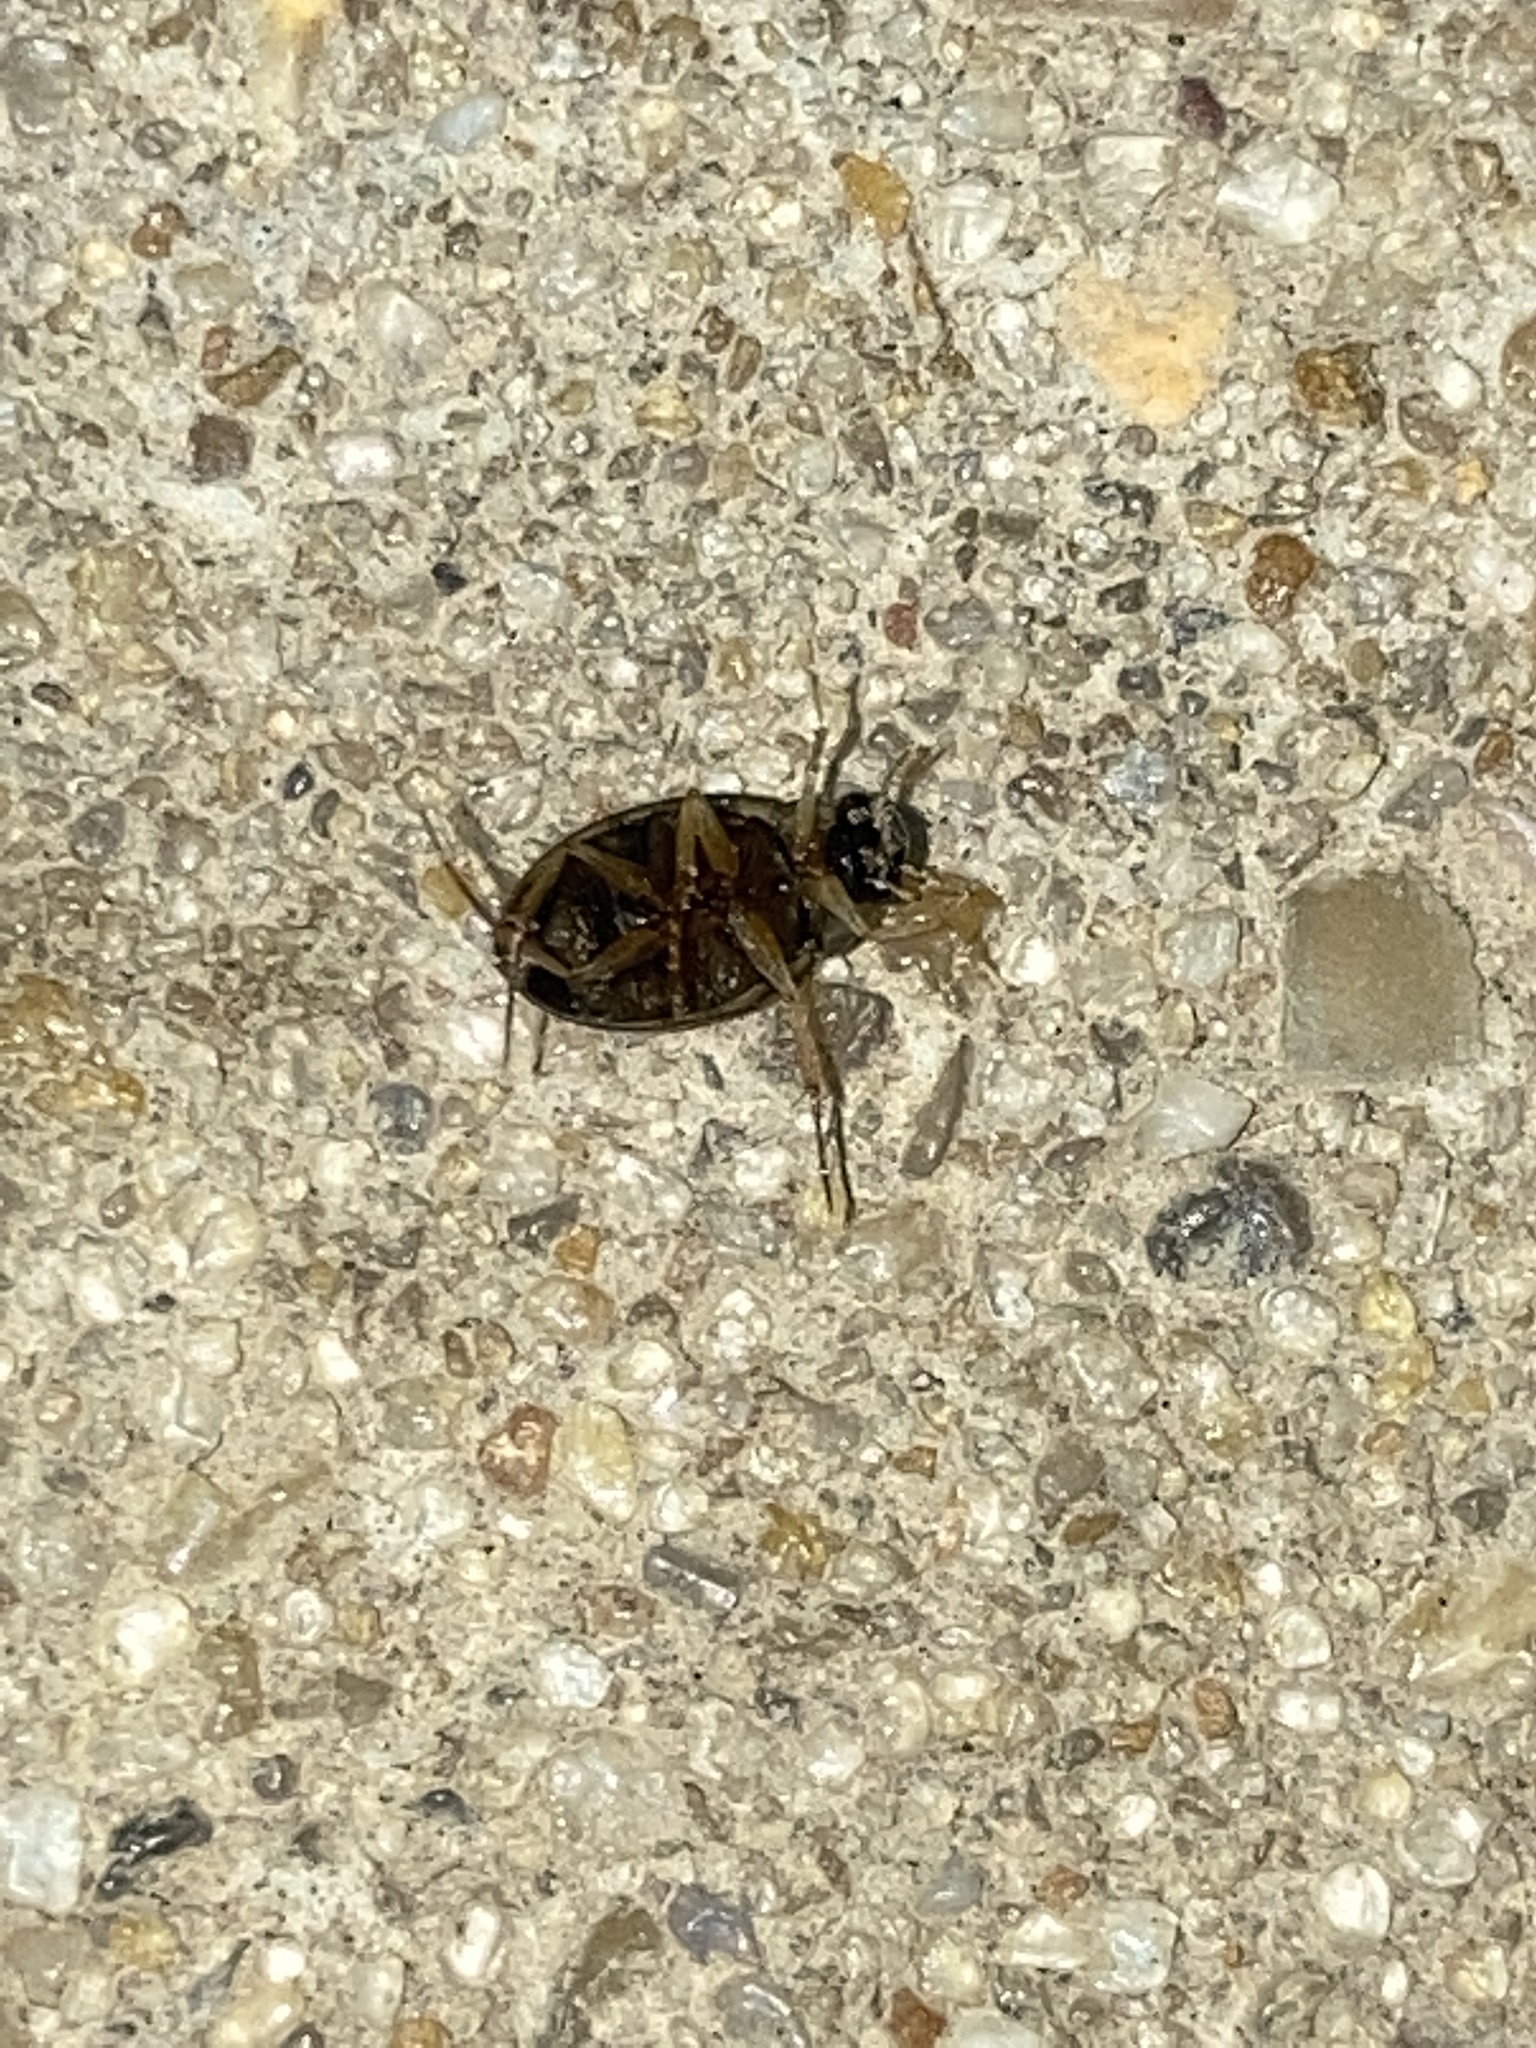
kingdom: Animalia
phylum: Arthropoda
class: Insecta
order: Coleoptera
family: Hydrophilidae
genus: Berosus
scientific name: Berosus
